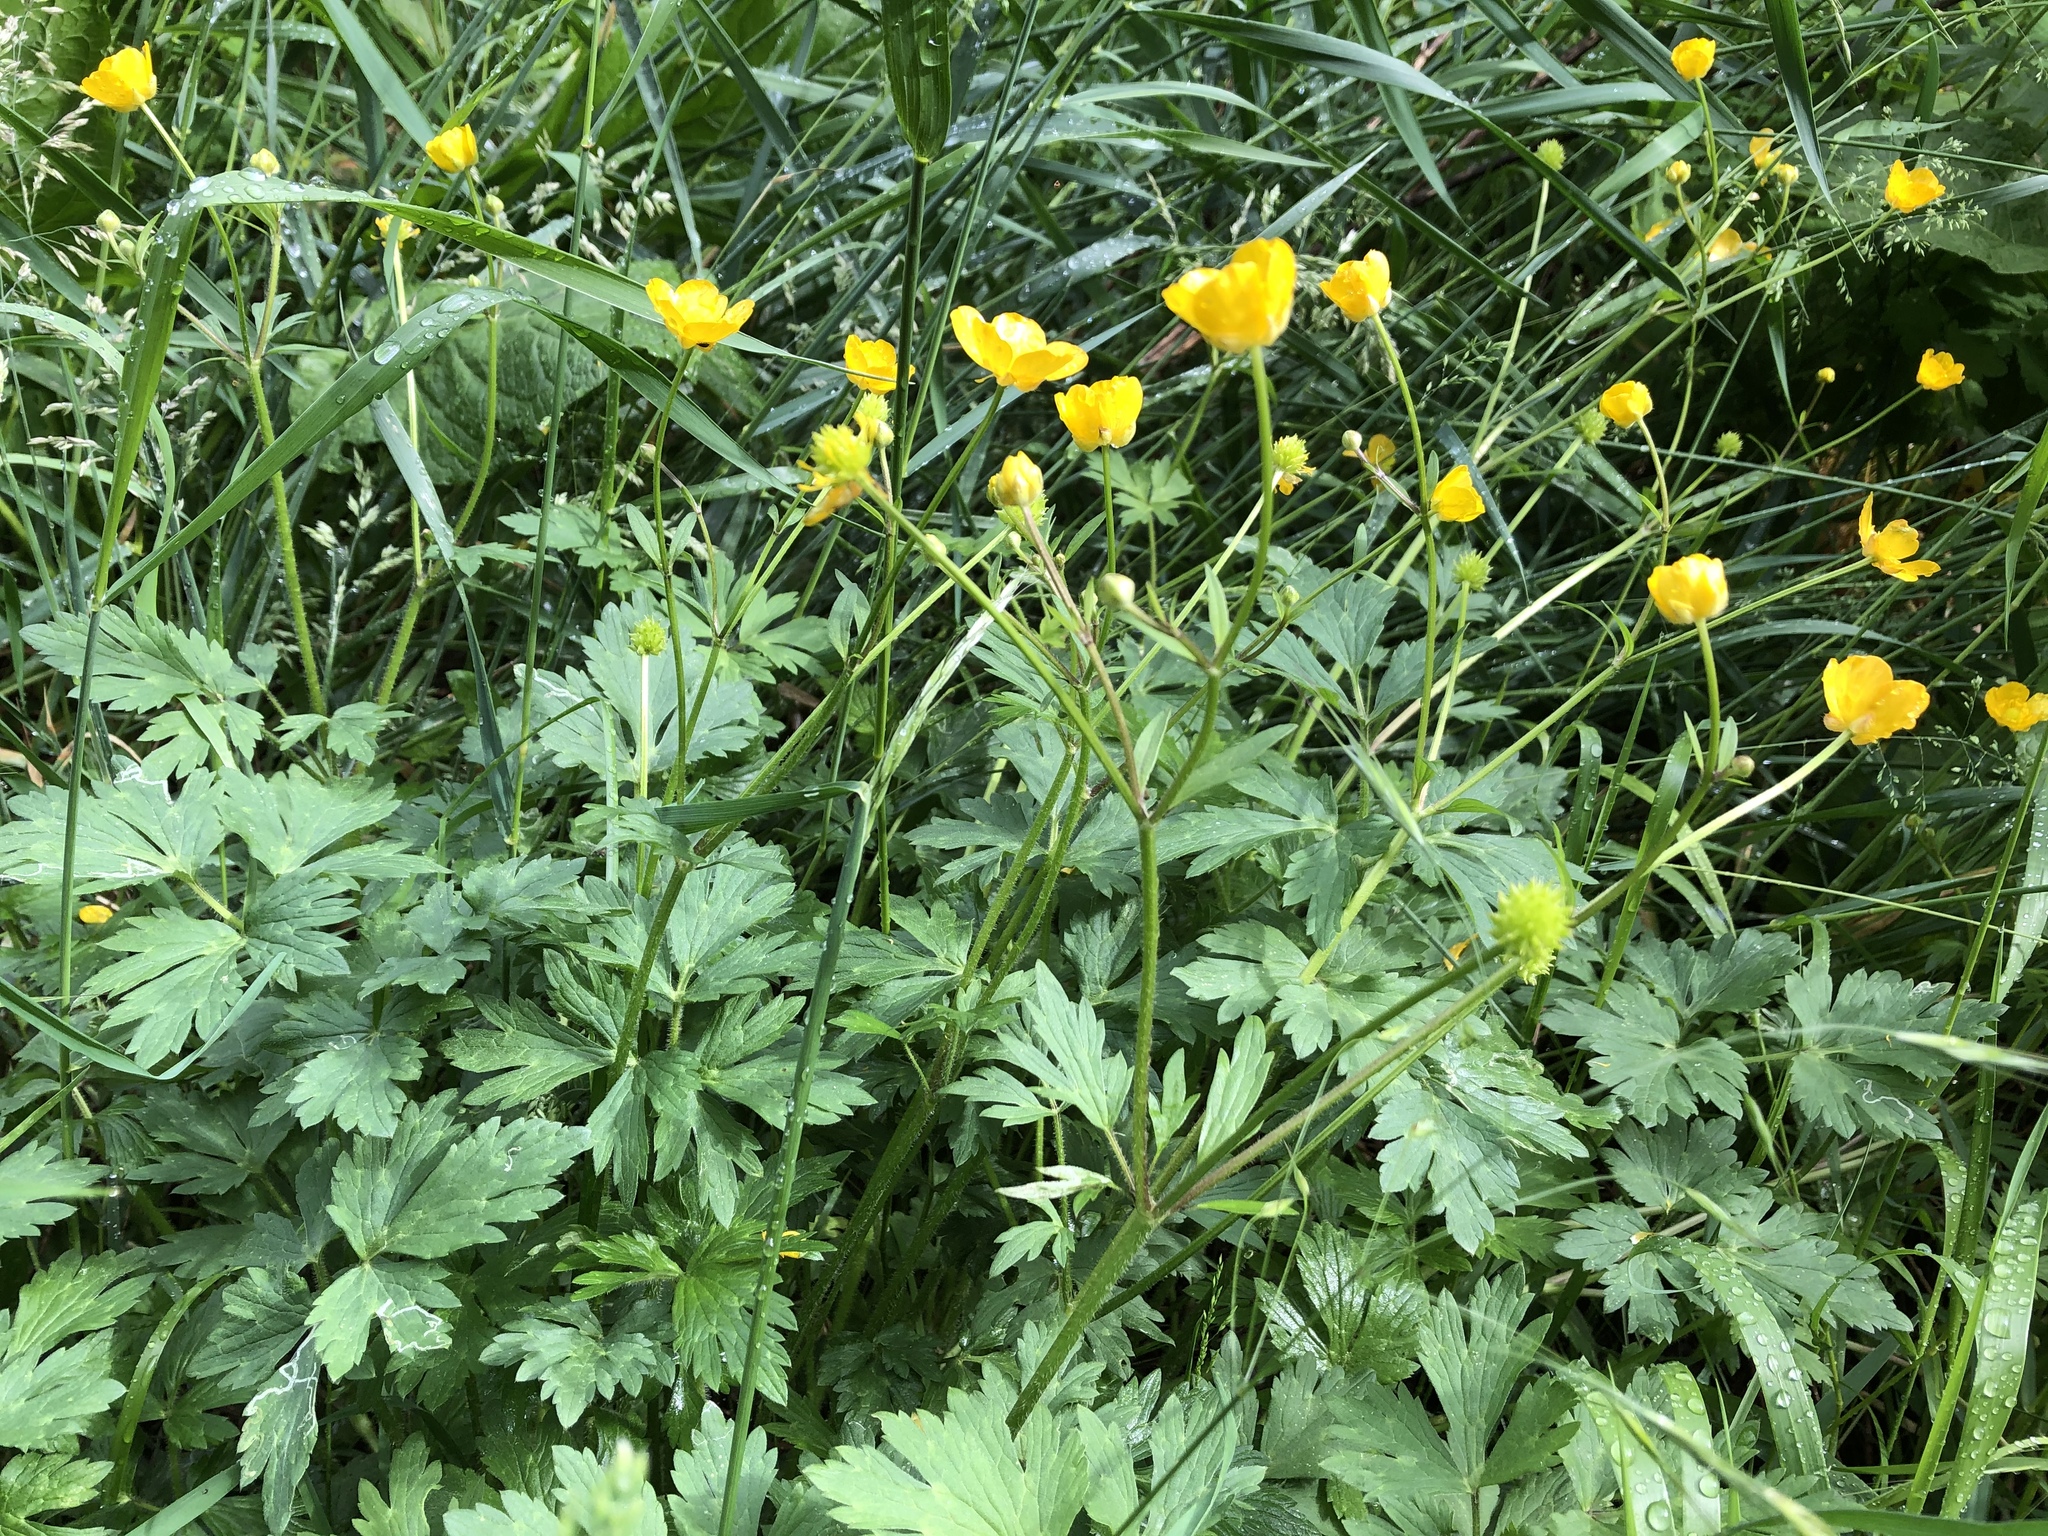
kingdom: Plantae
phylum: Tracheophyta
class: Magnoliopsida
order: Ranunculales
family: Ranunculaceae
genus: Ranunculus
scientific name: Ranunculus repens
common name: Creeping buttercup
